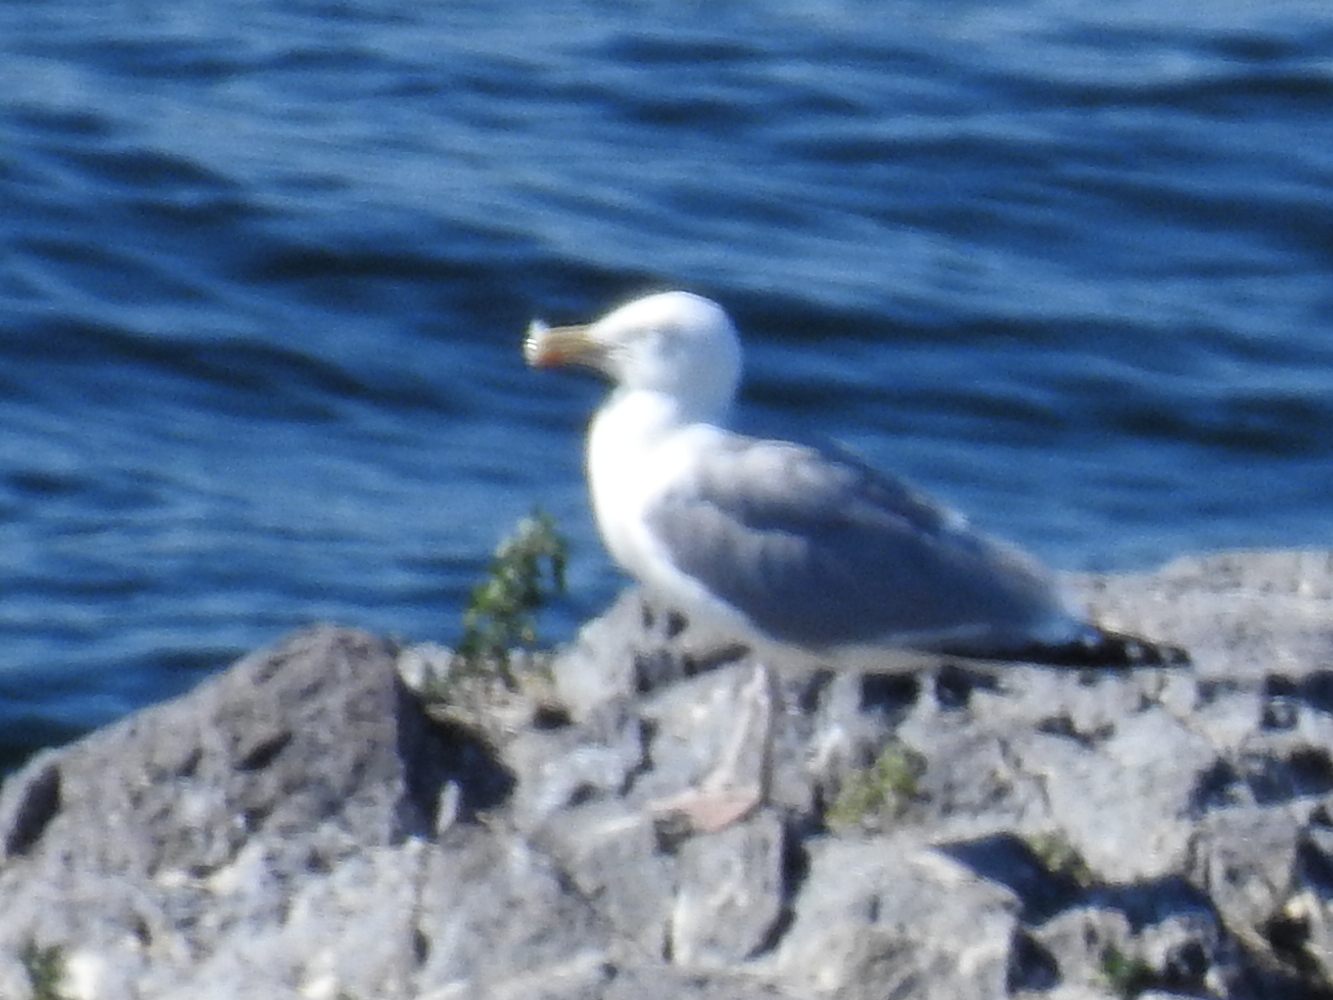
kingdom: Animalia
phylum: Chordata
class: Aves
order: Charadriiformes
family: Laridae
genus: Larus
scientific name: Larus argentatus
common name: Herring gull
